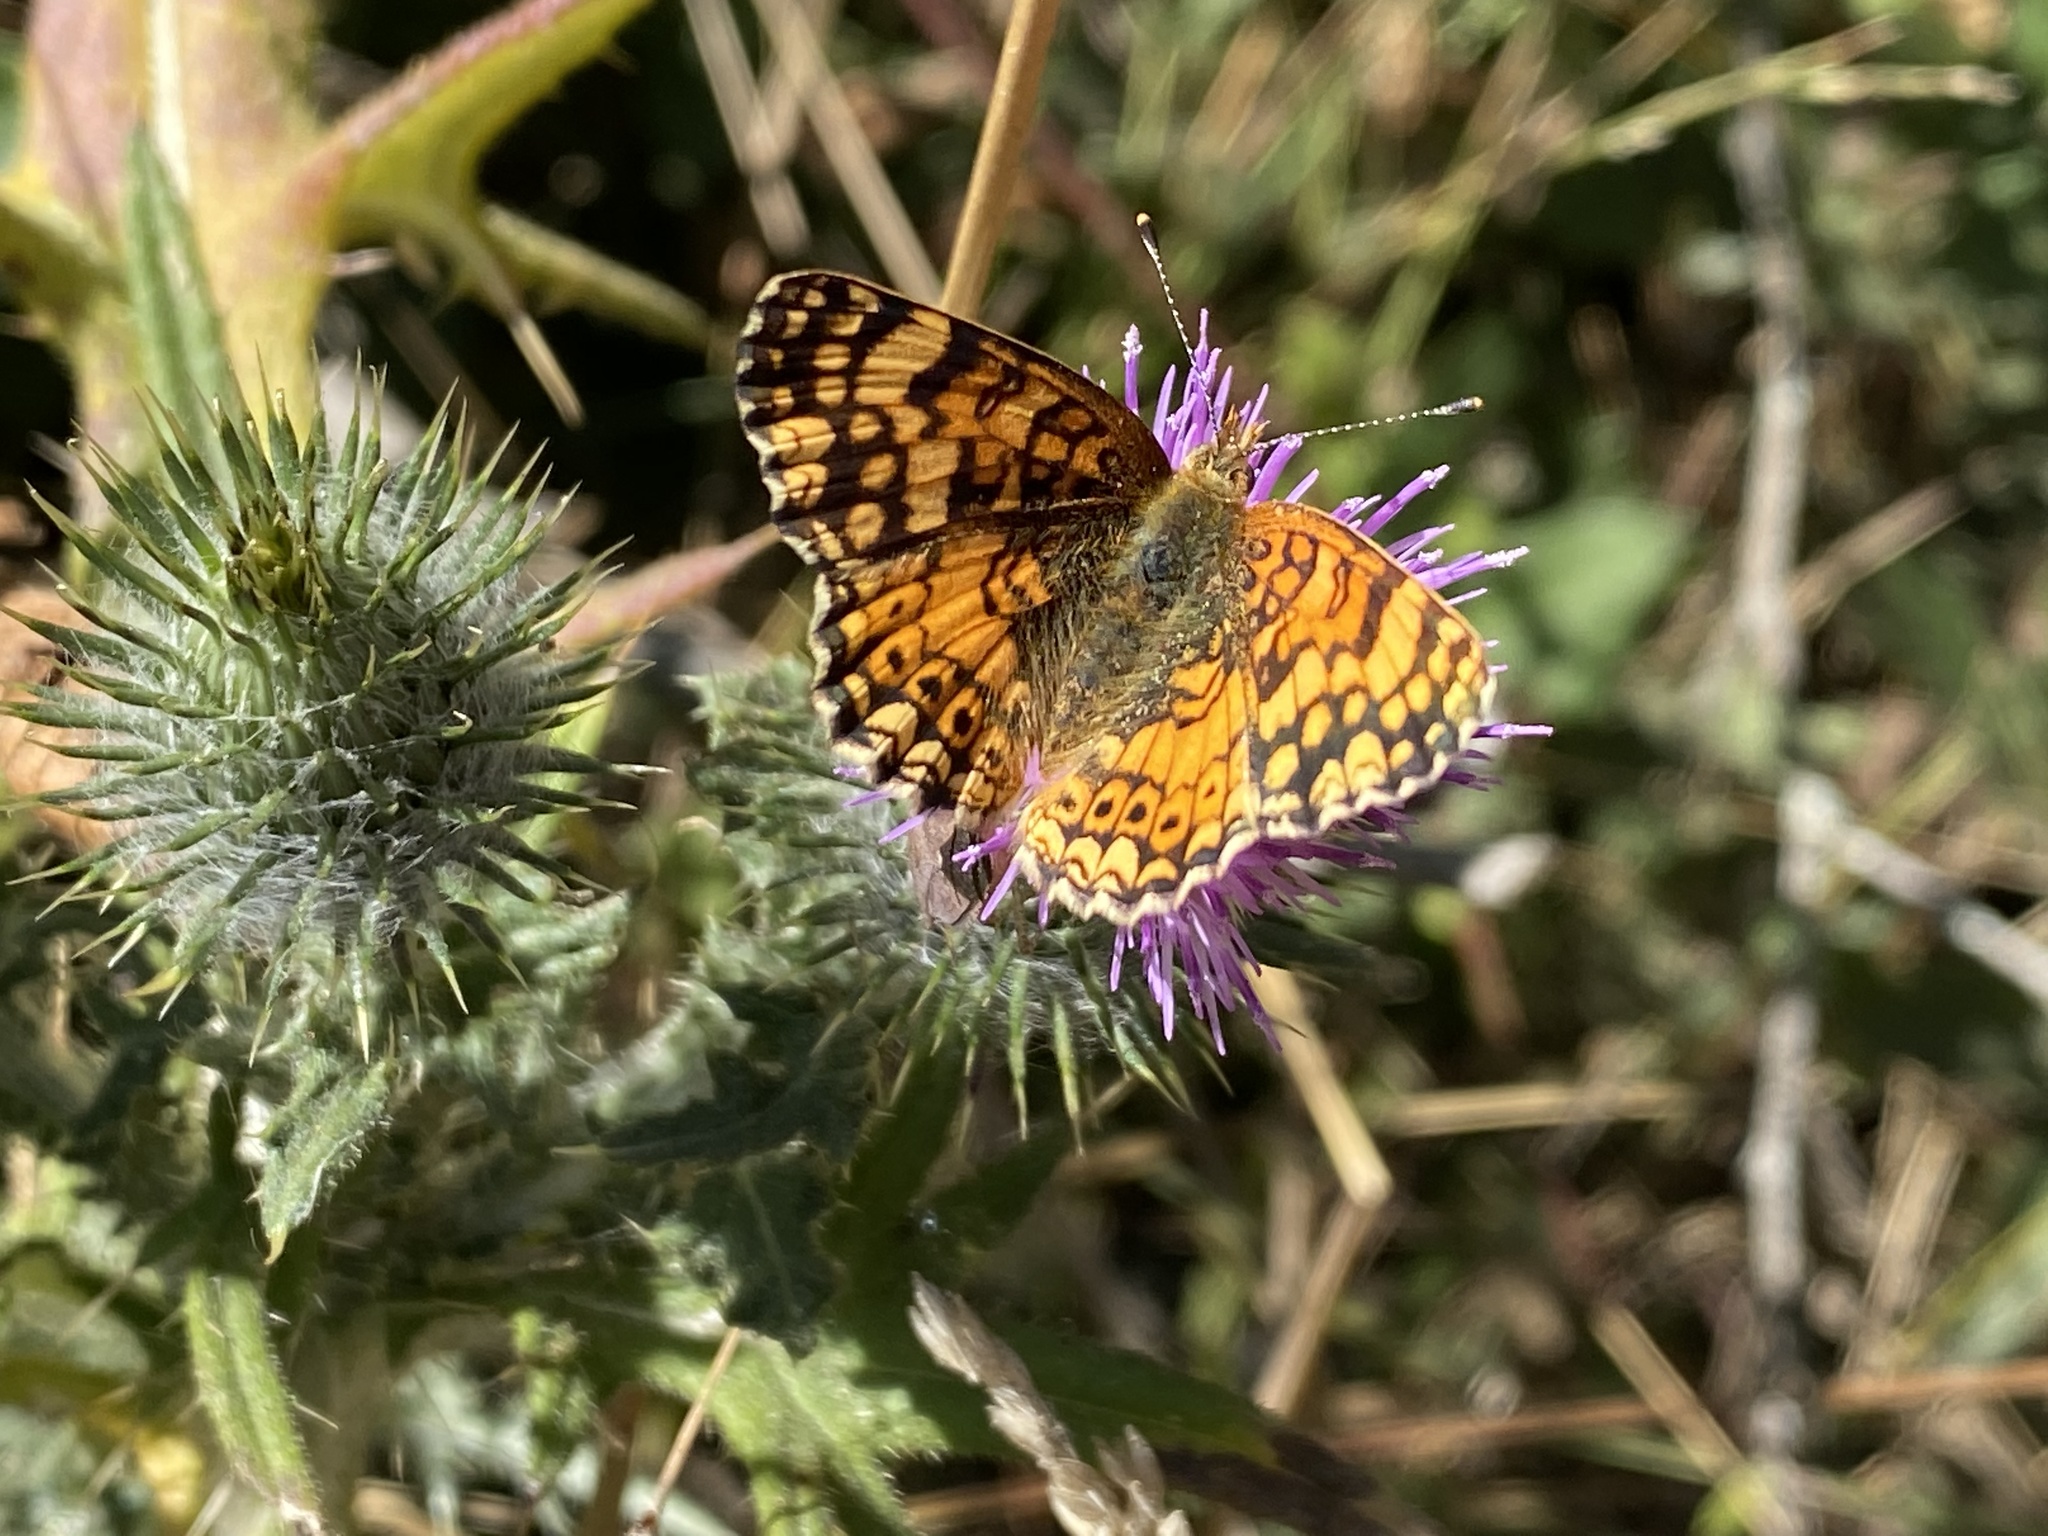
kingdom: Animalia
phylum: Arthropoda
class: Insecta
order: Lepidoptera
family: Nymphalidae
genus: Eresia
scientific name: Eresia aveyrona
